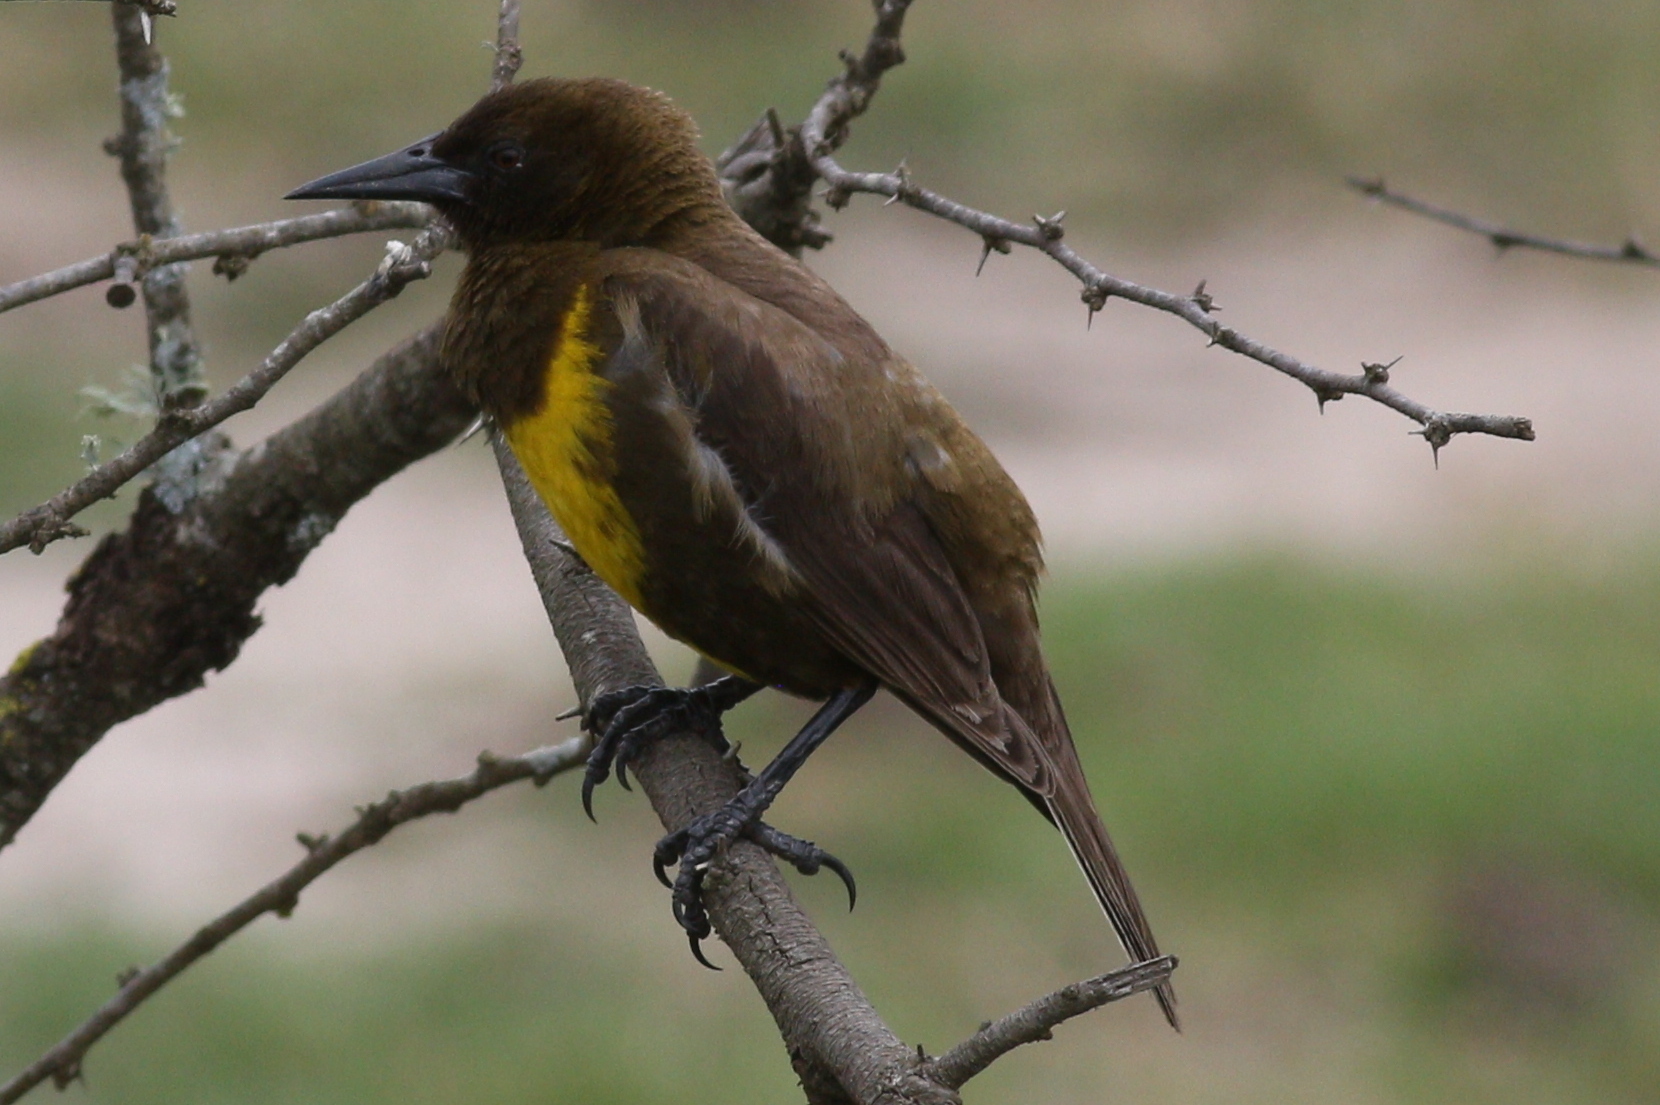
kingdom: Animalia
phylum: Chordata
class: Aves
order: Passeriformes
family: Icteridae
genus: Pseudoleistes
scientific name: Pseudoleistes virescens
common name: Brown-and-yellow marshbird
